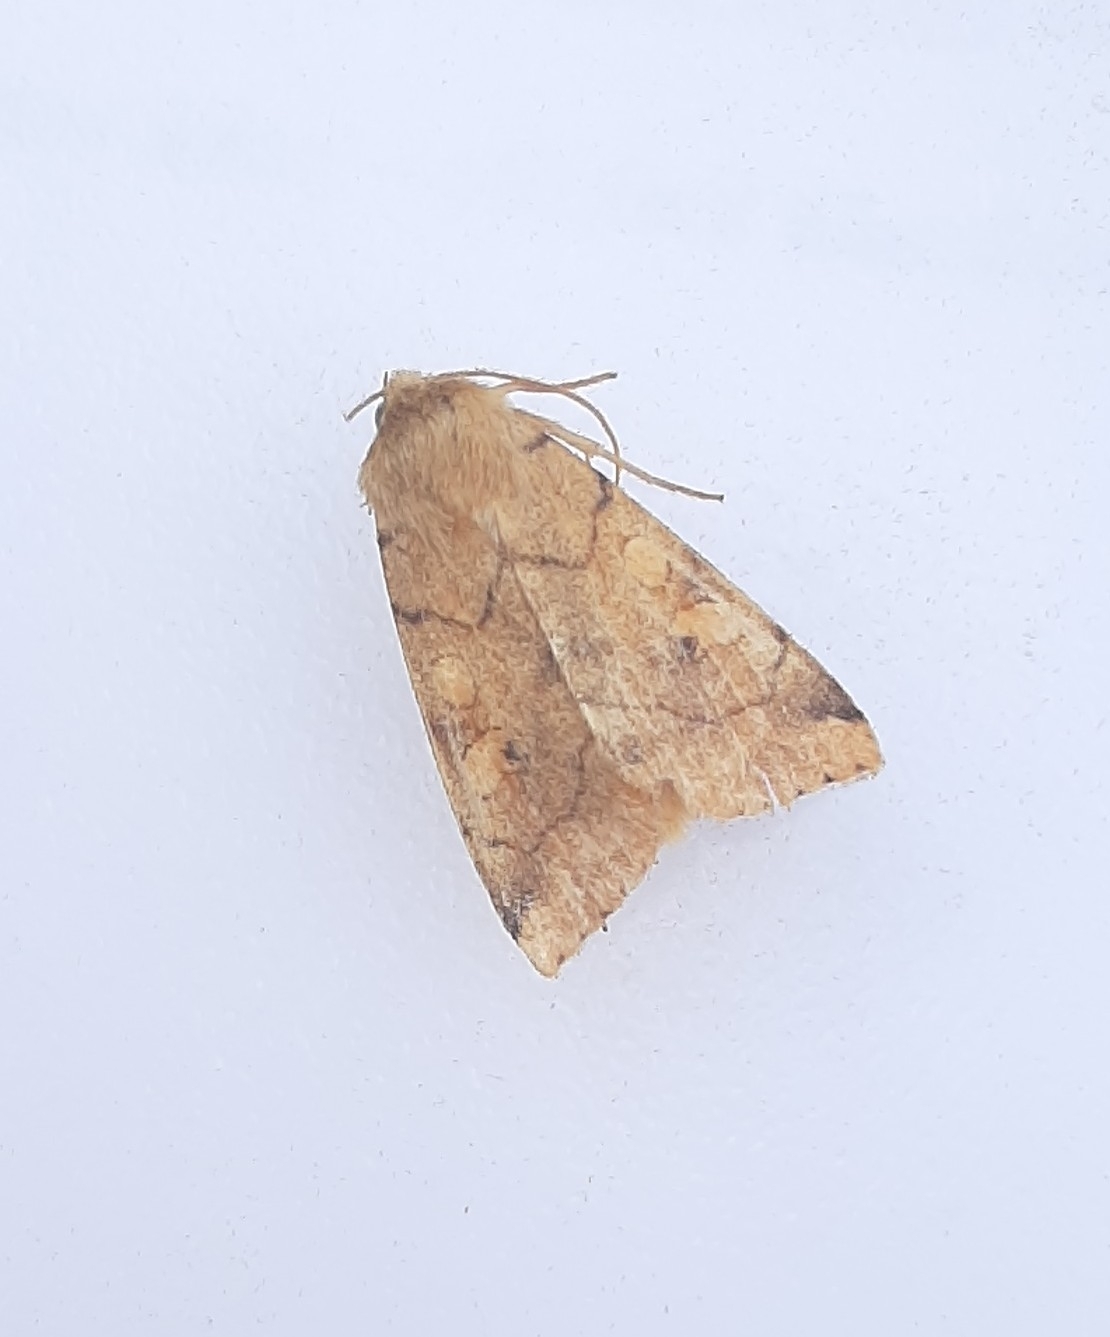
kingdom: Animalia
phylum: Arthropoda
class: Insecta
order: Lepidoptera
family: Noctuidae
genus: Enargia
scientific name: Enargia paleacea
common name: Angle-striped sallow
